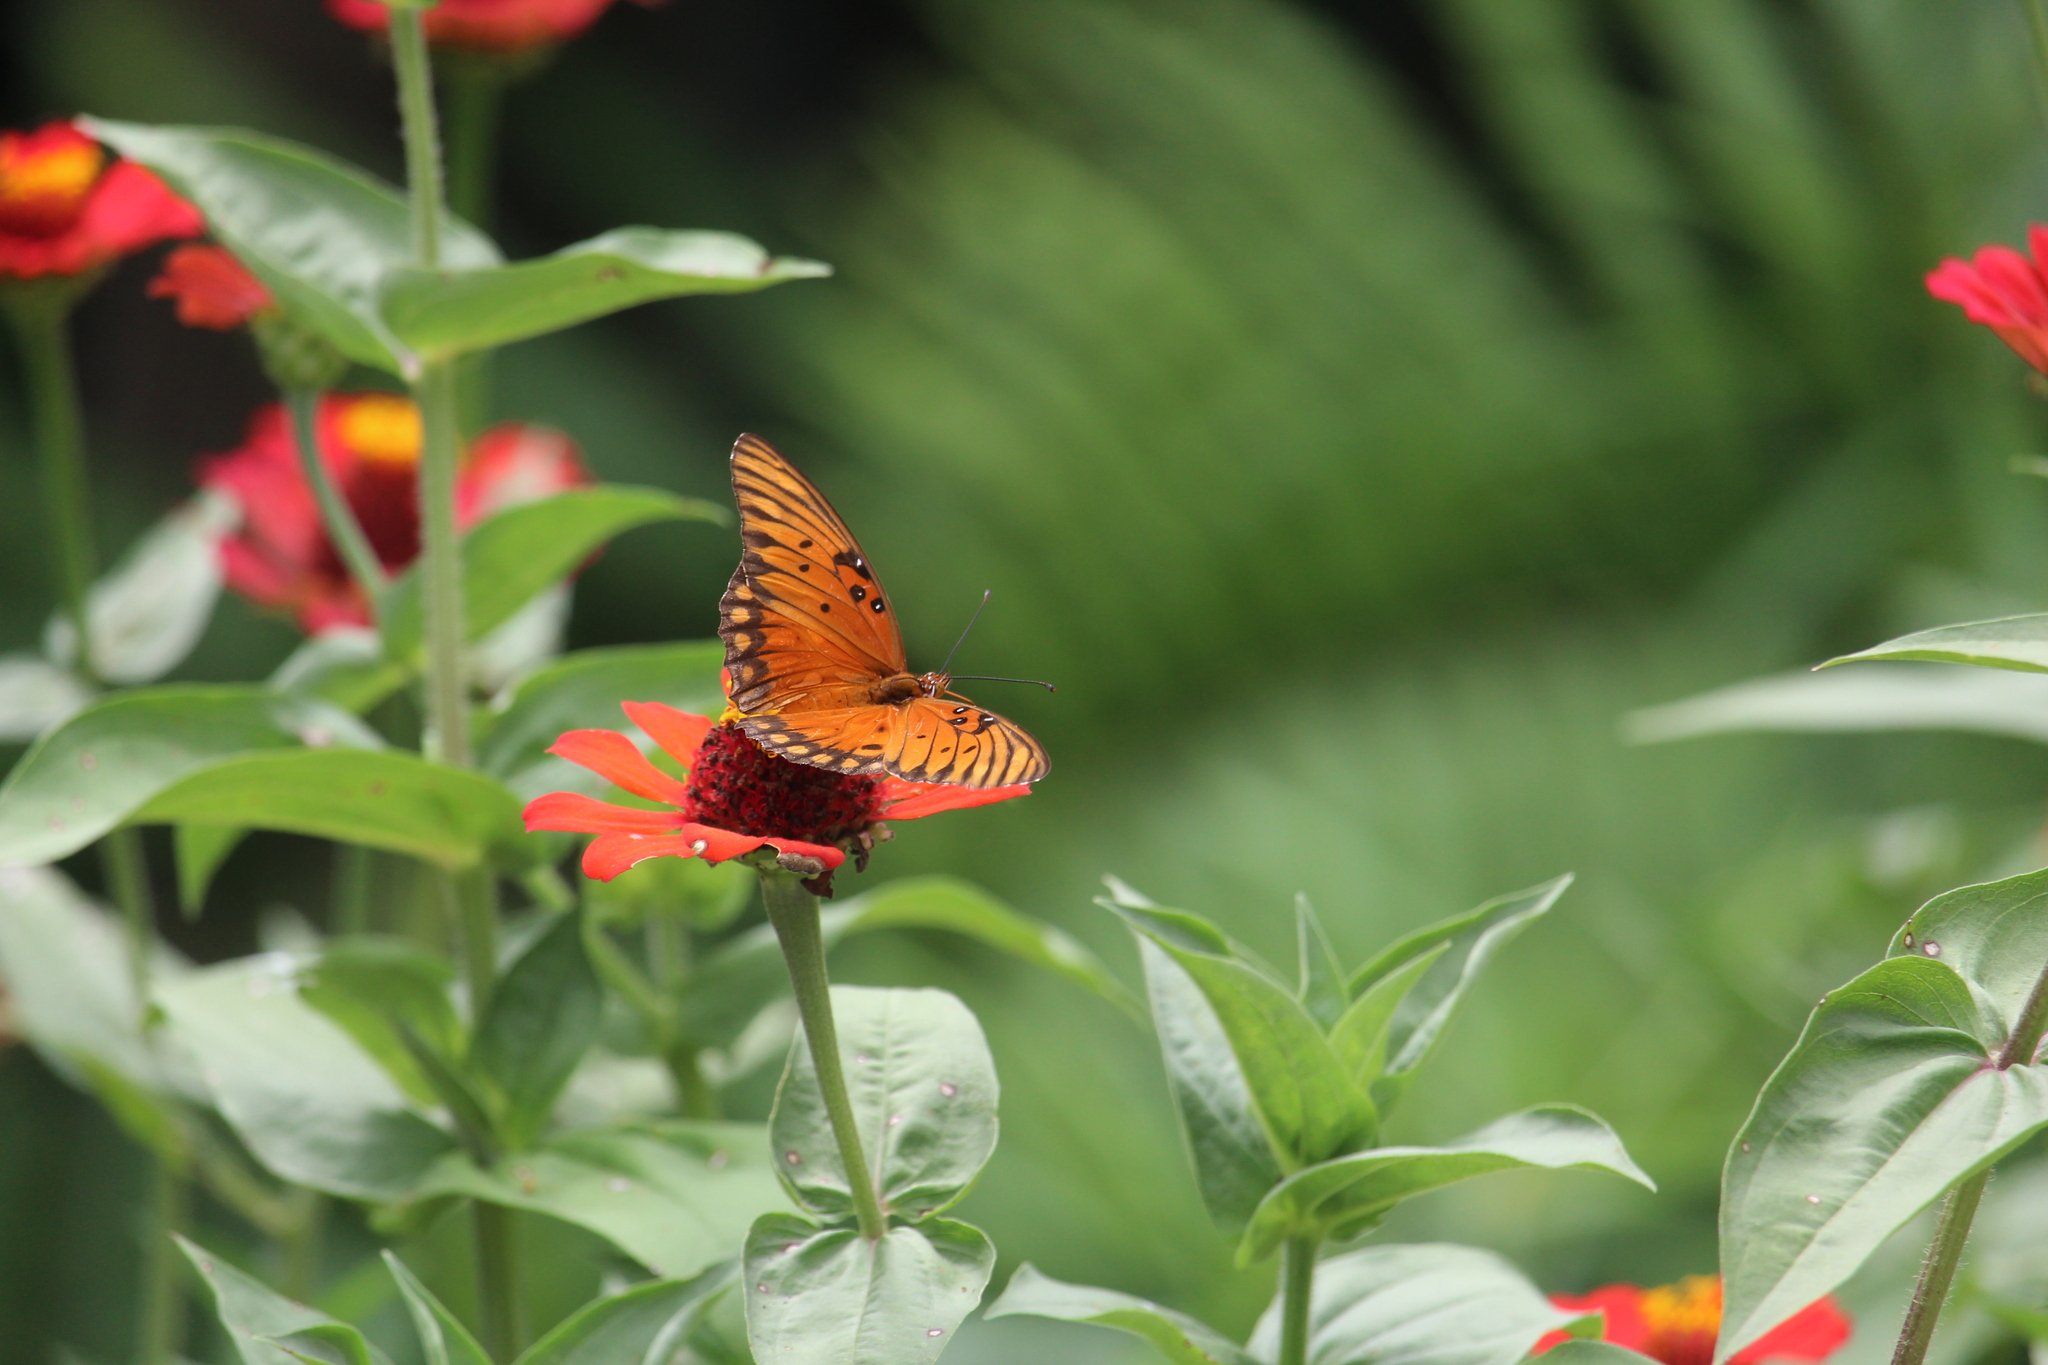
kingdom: Animalia
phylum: Arthropoda
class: Insecta
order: Lepidoptera
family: Nymphalidae
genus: Dione
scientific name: Dione vanillae
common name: Gulf fritillary
